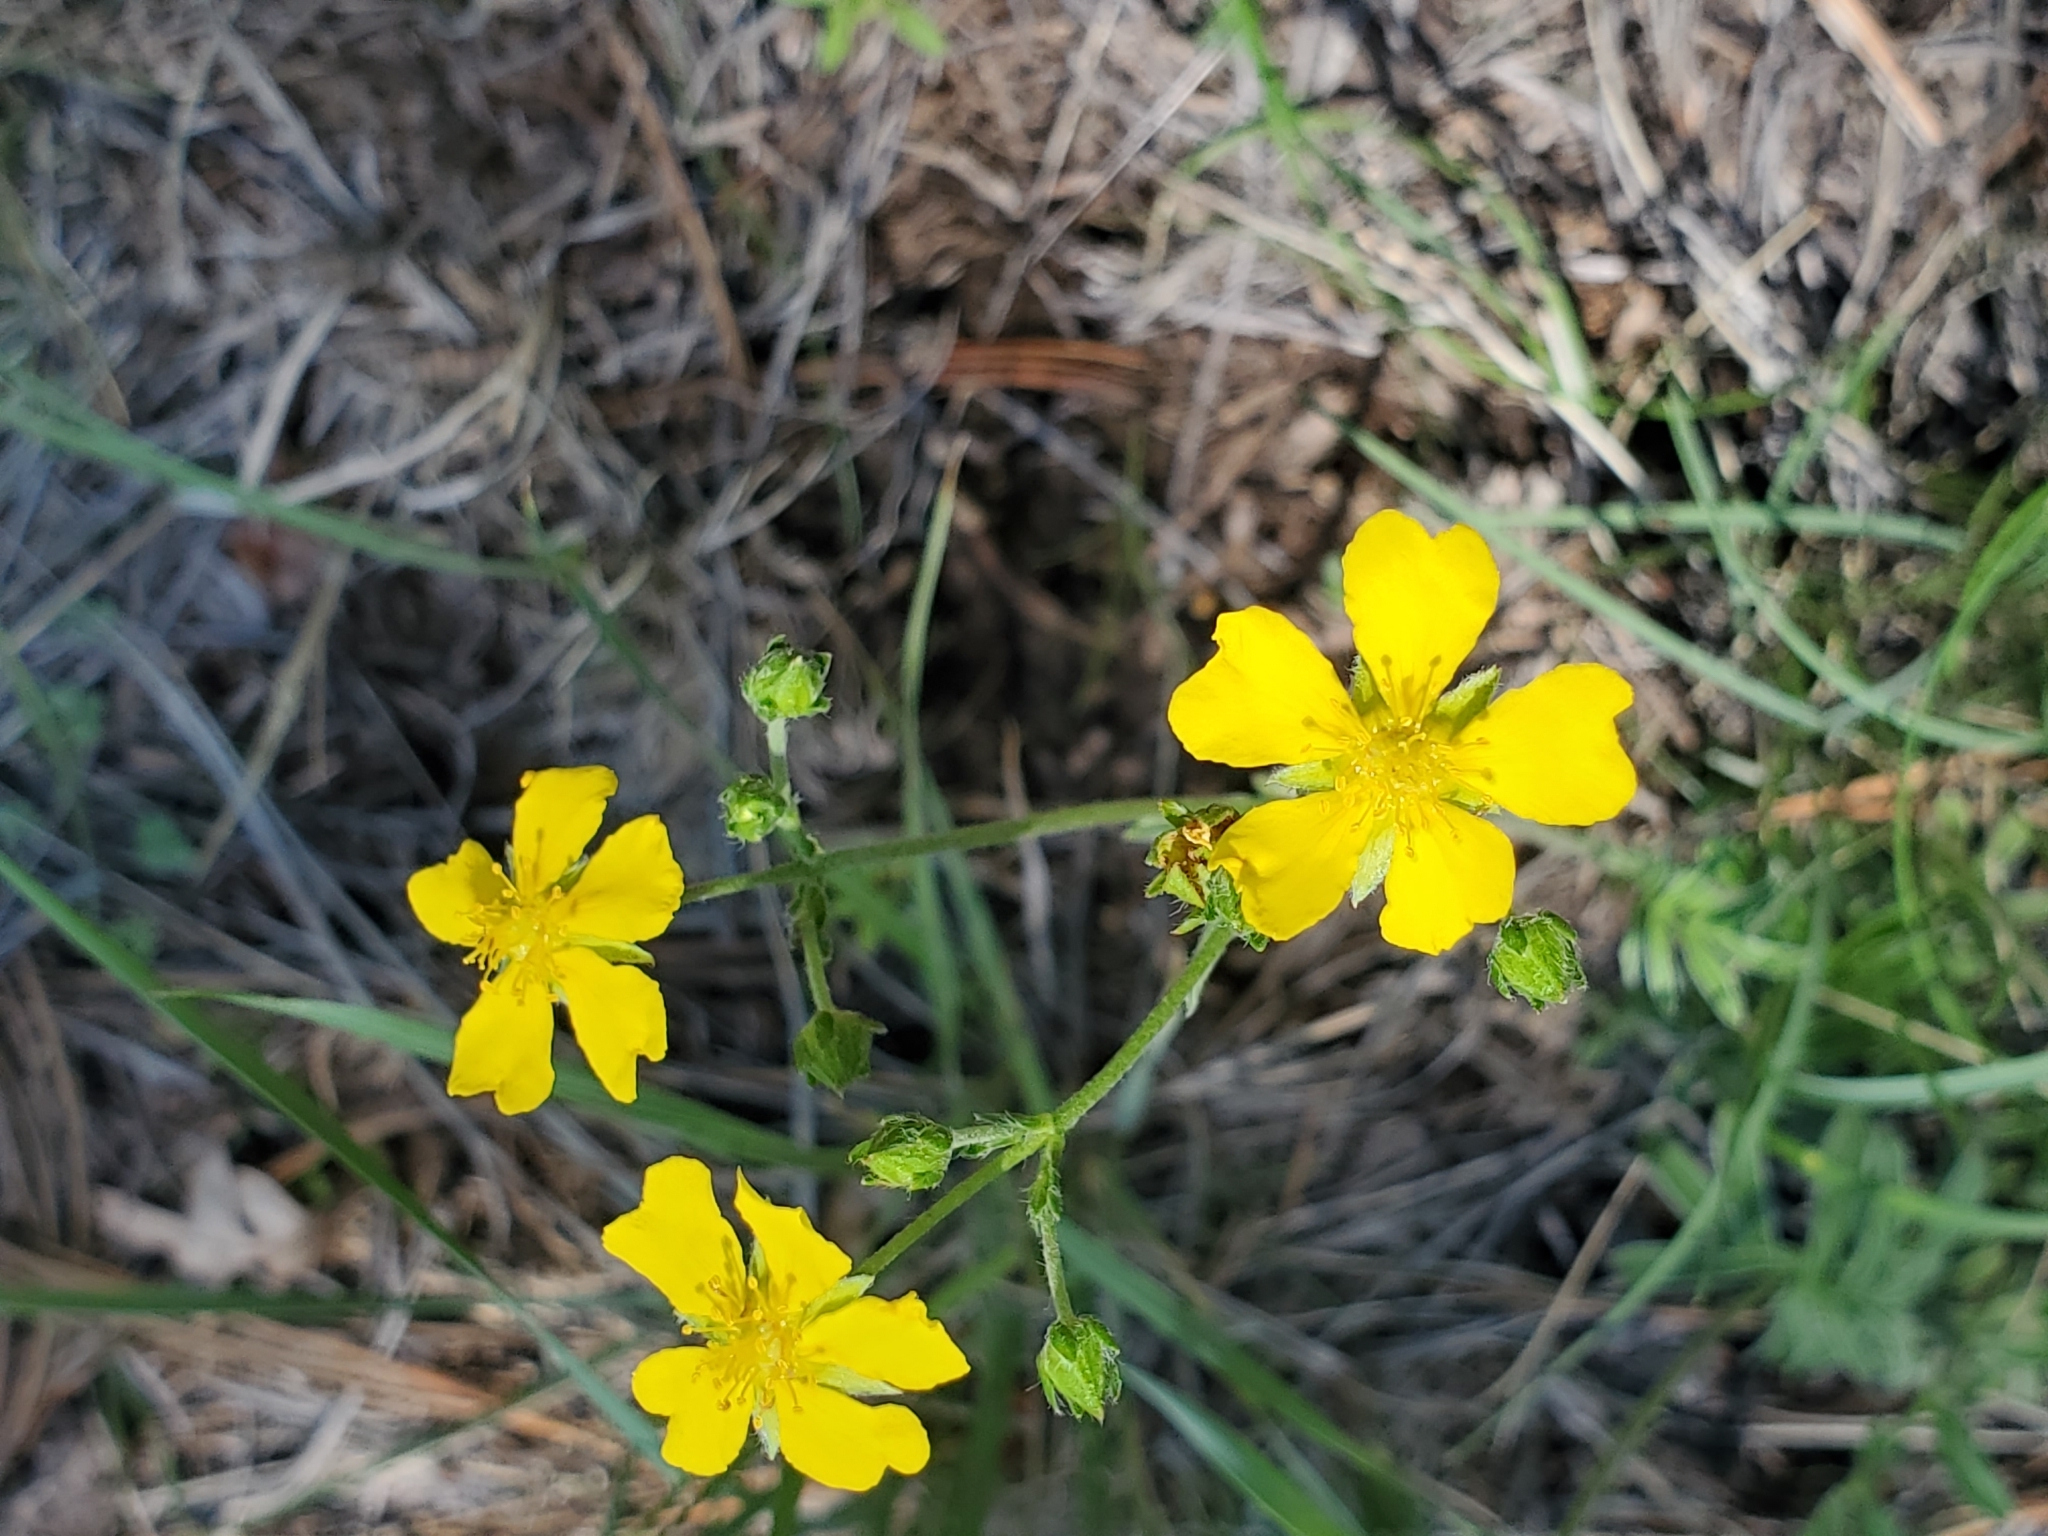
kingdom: Plantae
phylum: Tracheophyta
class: Magnoliopsida
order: Rosales
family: Rosaceae
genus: Potentilla
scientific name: Potentilla crinita
